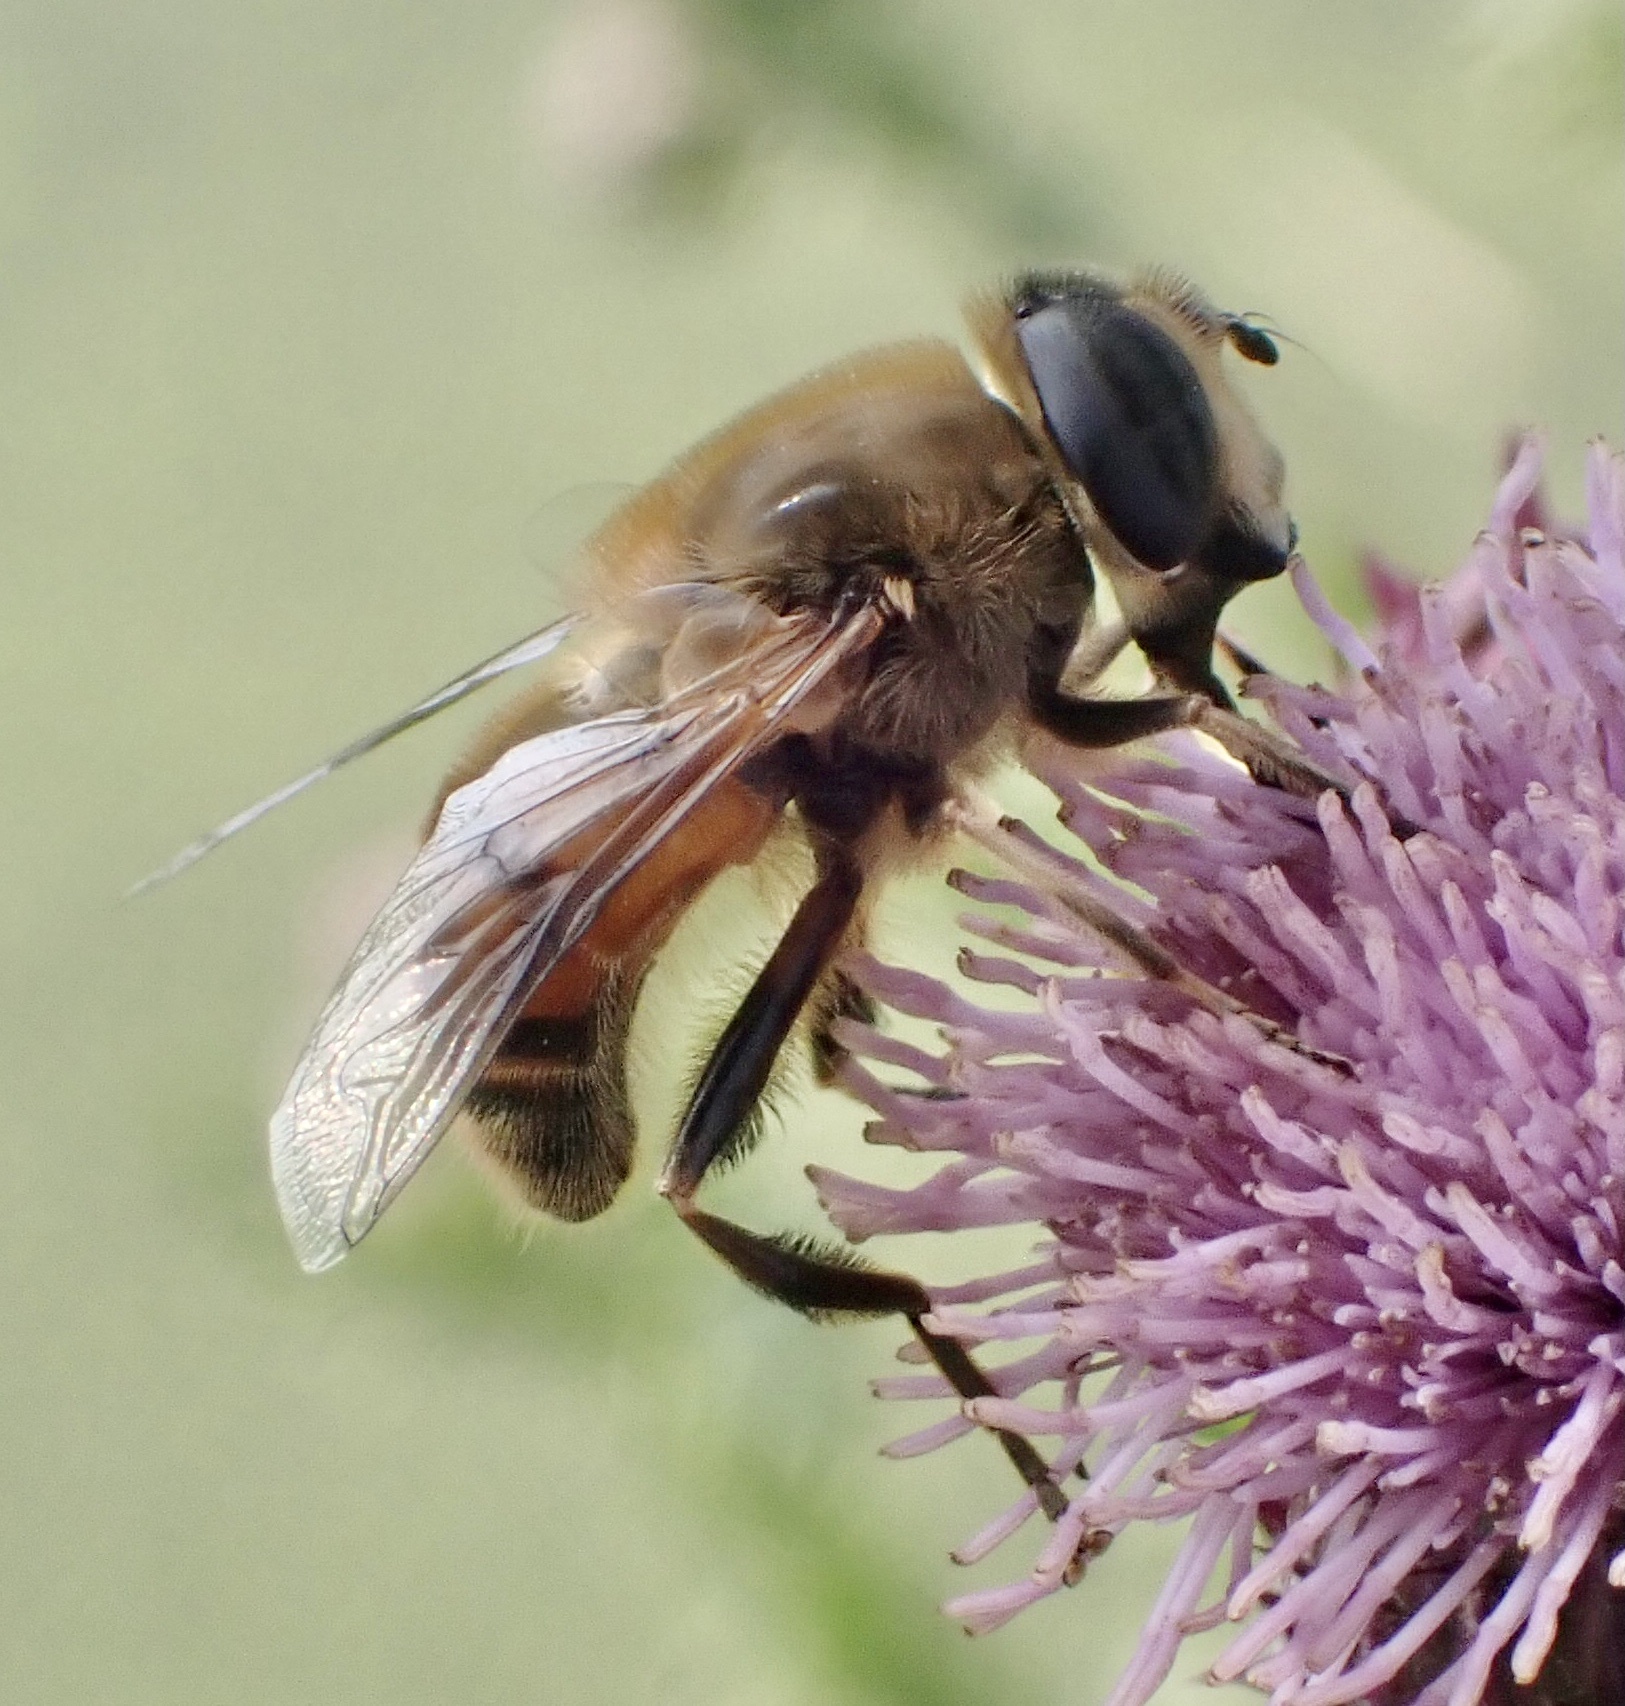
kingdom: Animalia
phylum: Arthropoda
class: Insecta
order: Diptera
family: Syrphidae
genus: Eristalis
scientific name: Eristalis tenax
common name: Drone fly
